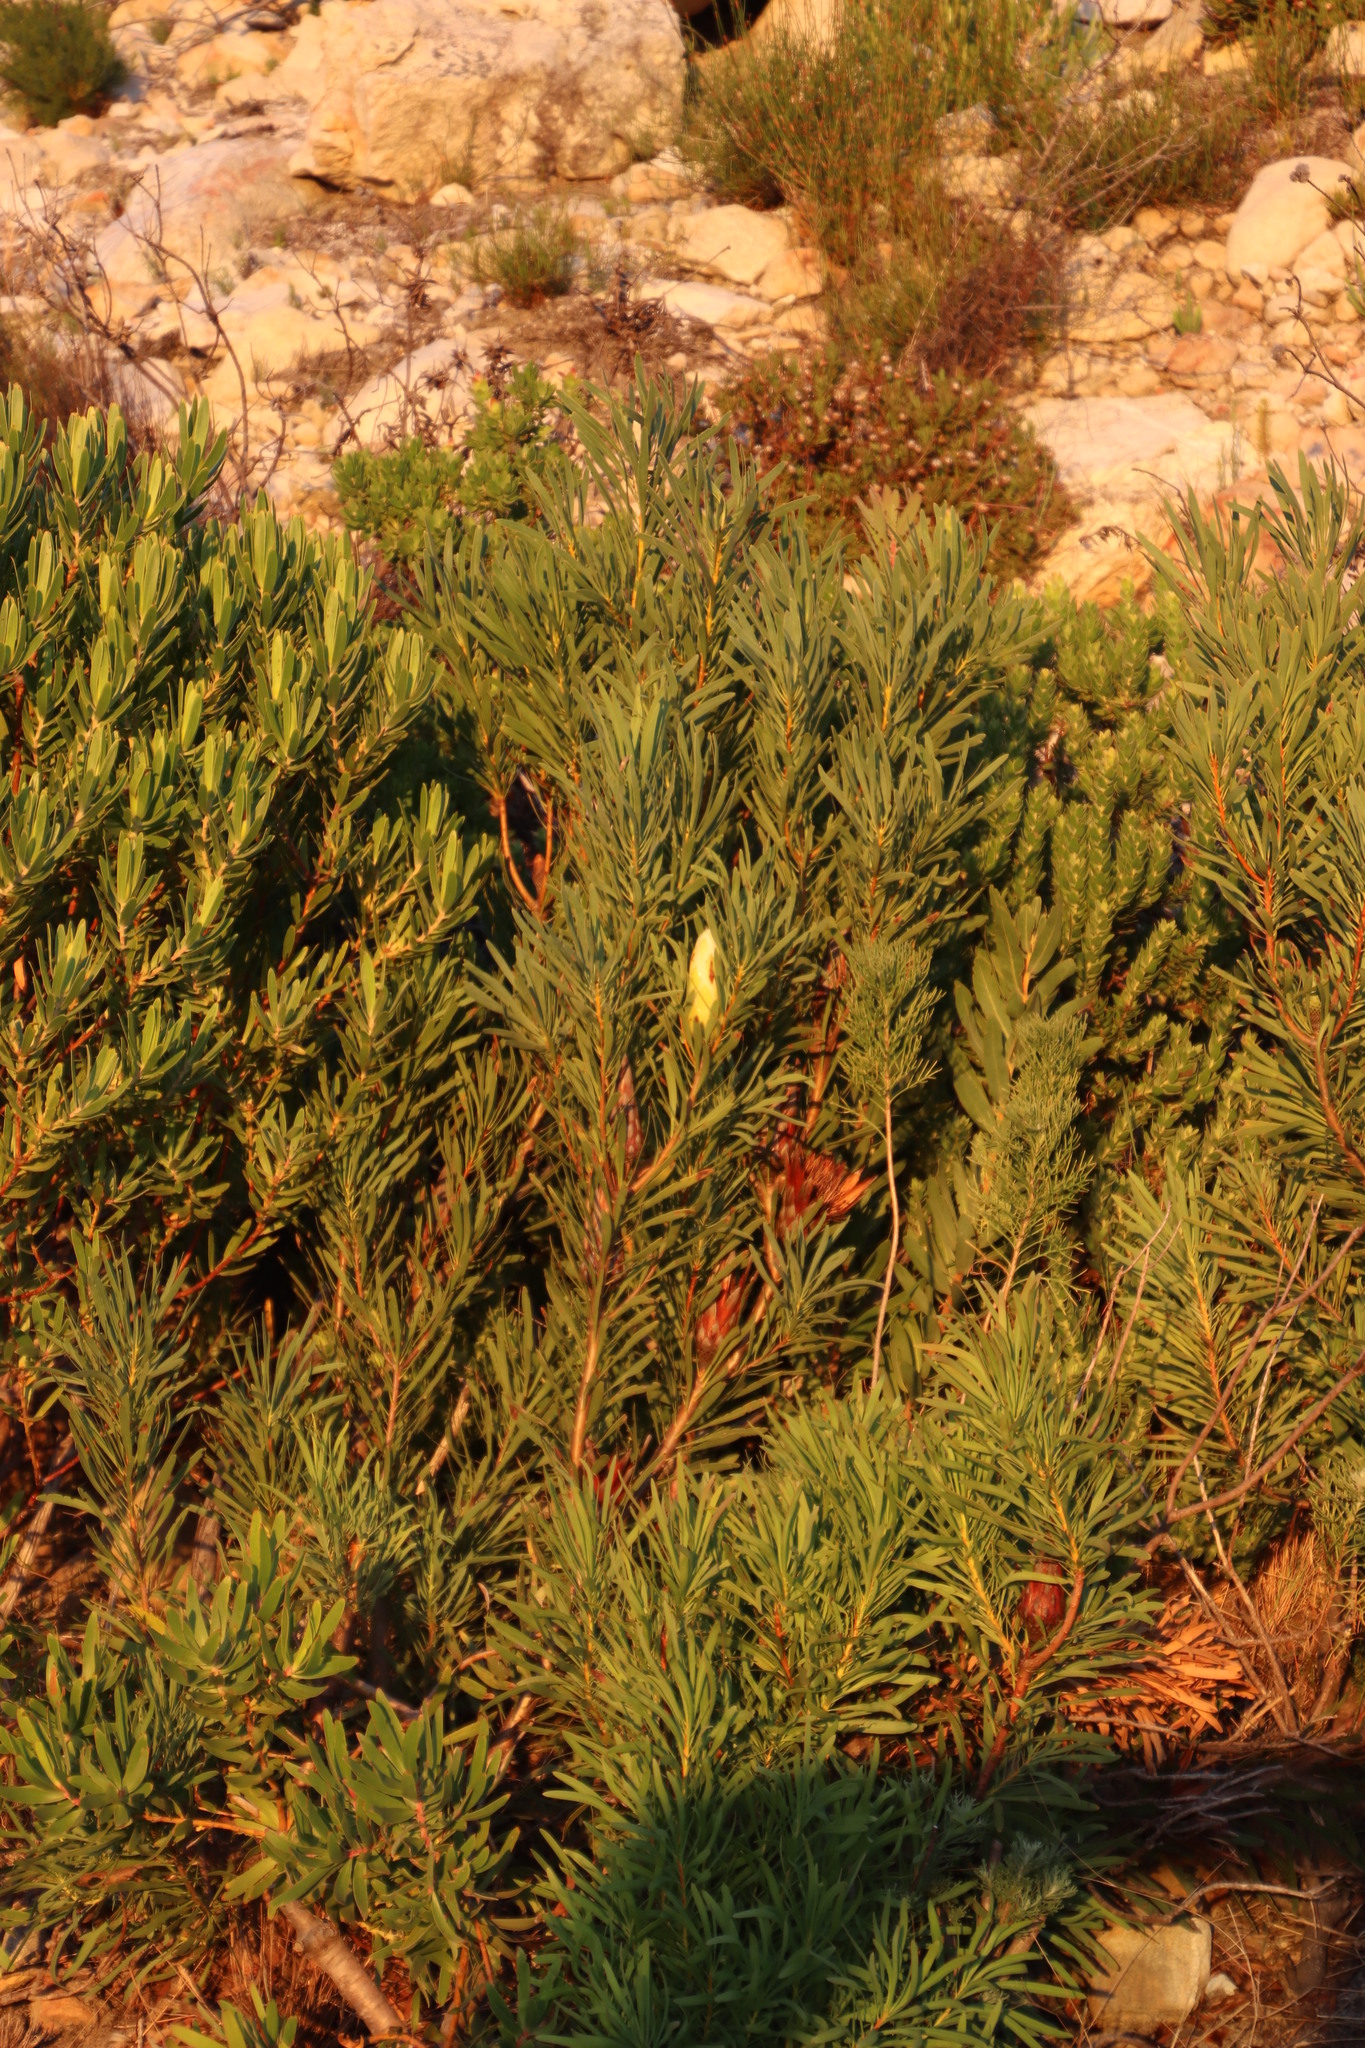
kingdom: Plantae
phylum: Tracheophyta
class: Magnoliopsida
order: Proteales
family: Proteaceae
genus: Protea
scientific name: Protea repens
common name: Sugarbush
